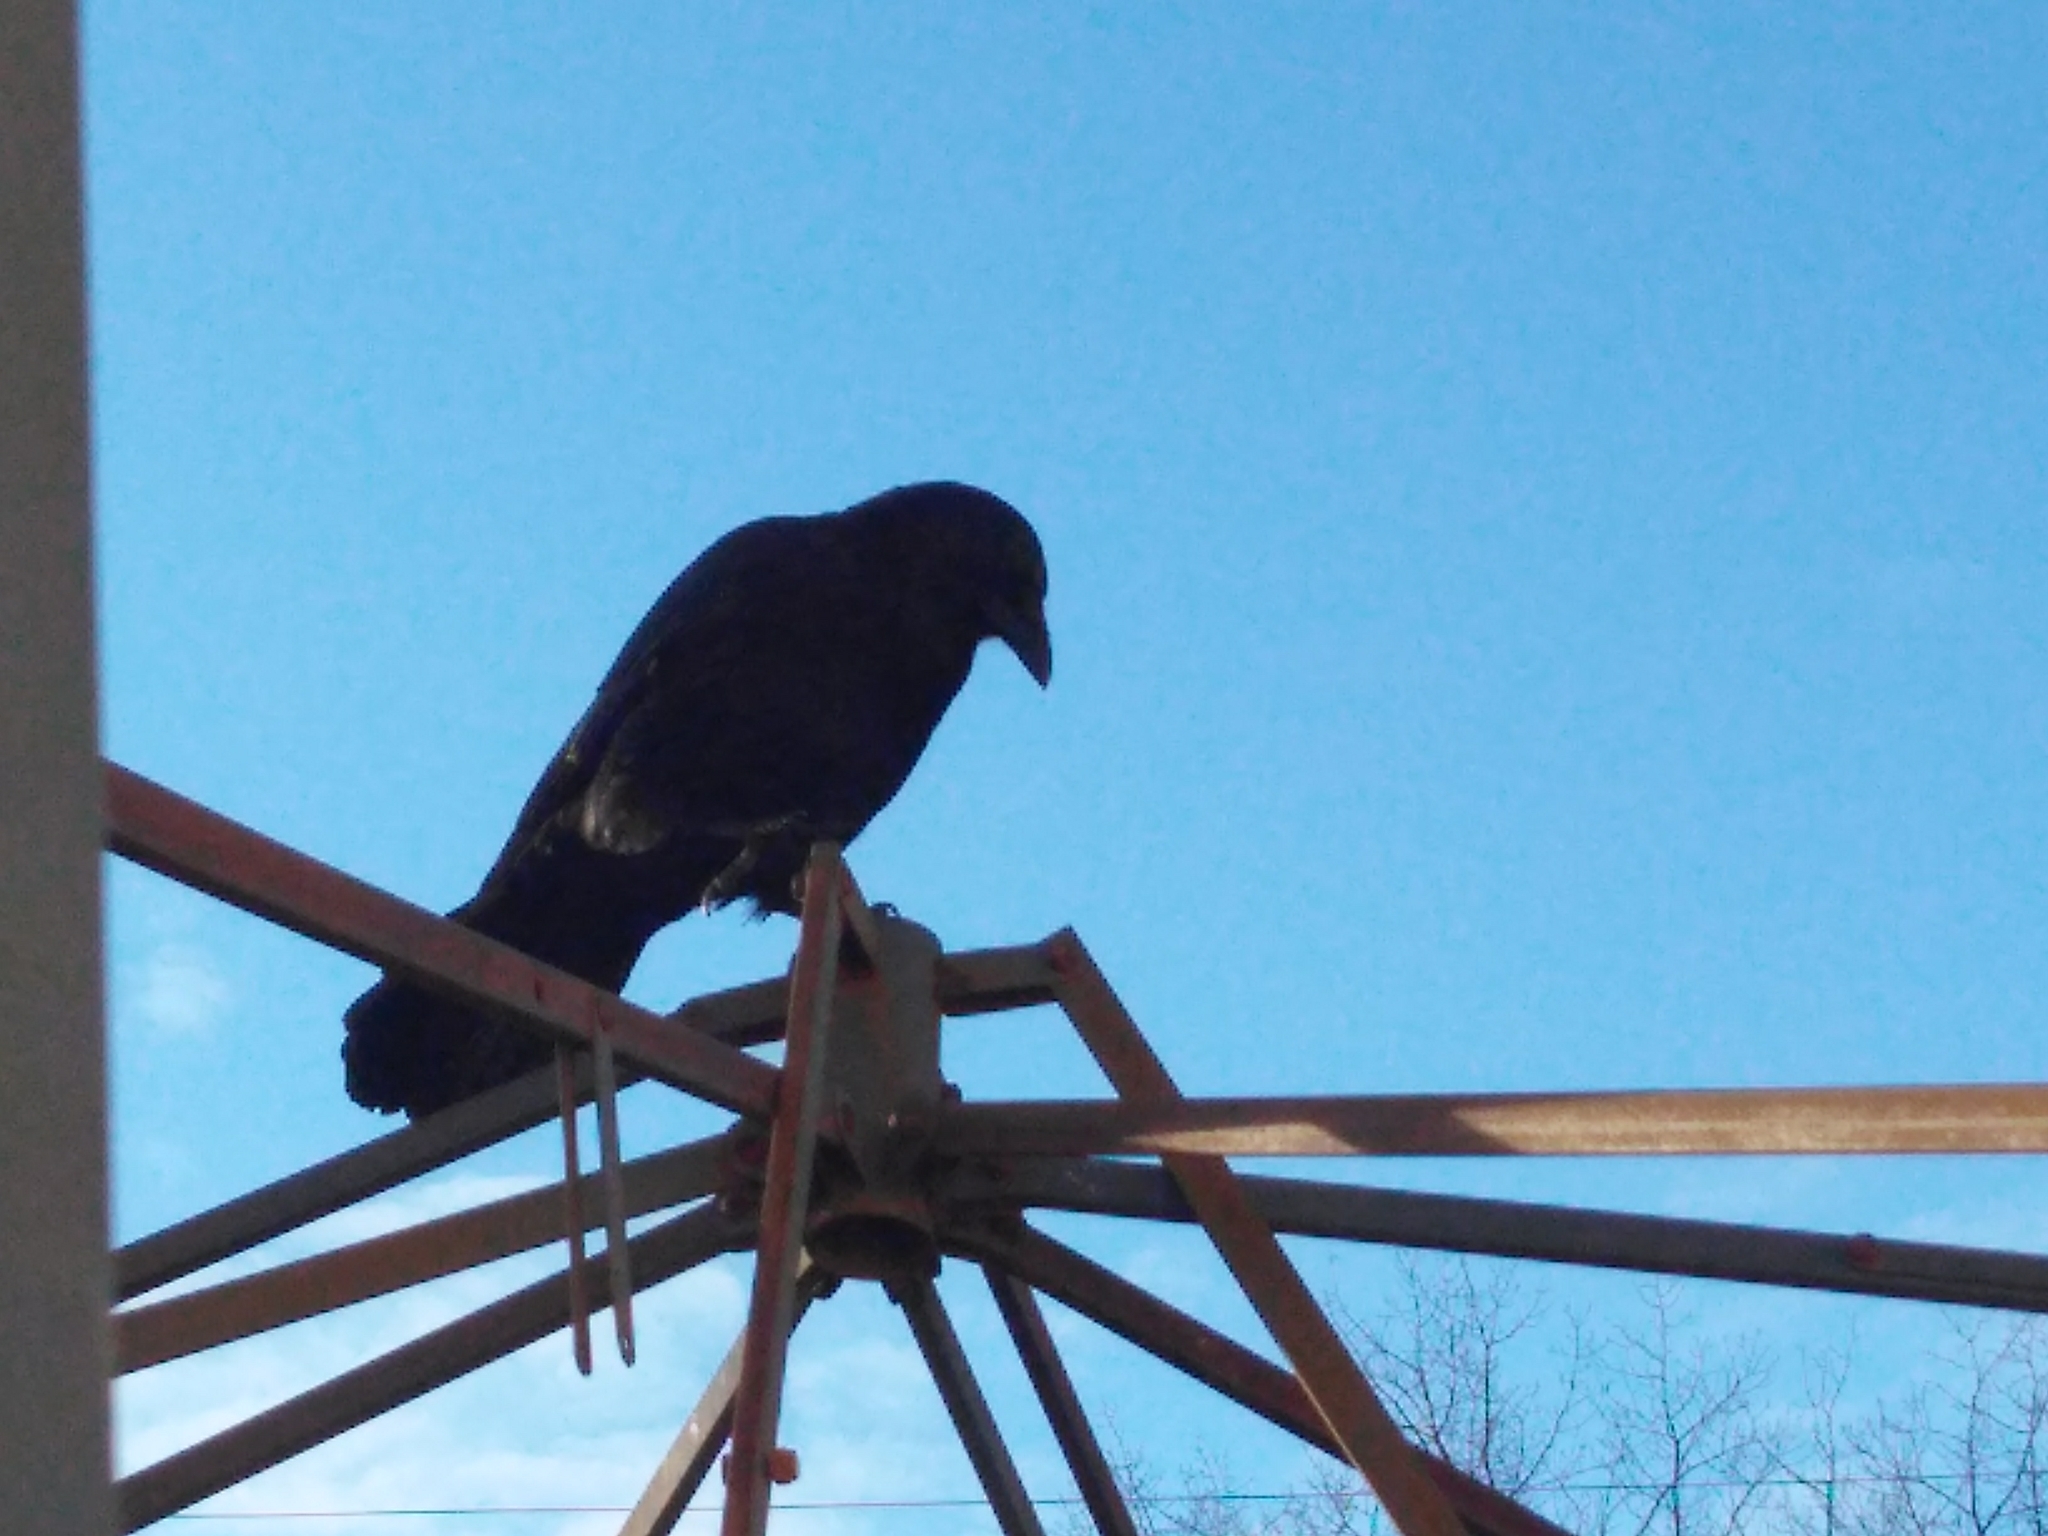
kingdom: Animalia
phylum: Chordata
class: Aves
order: Passeriformes
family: Corvidae
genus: Corvus
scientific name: Corvus brachyrhynchos
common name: American crow
